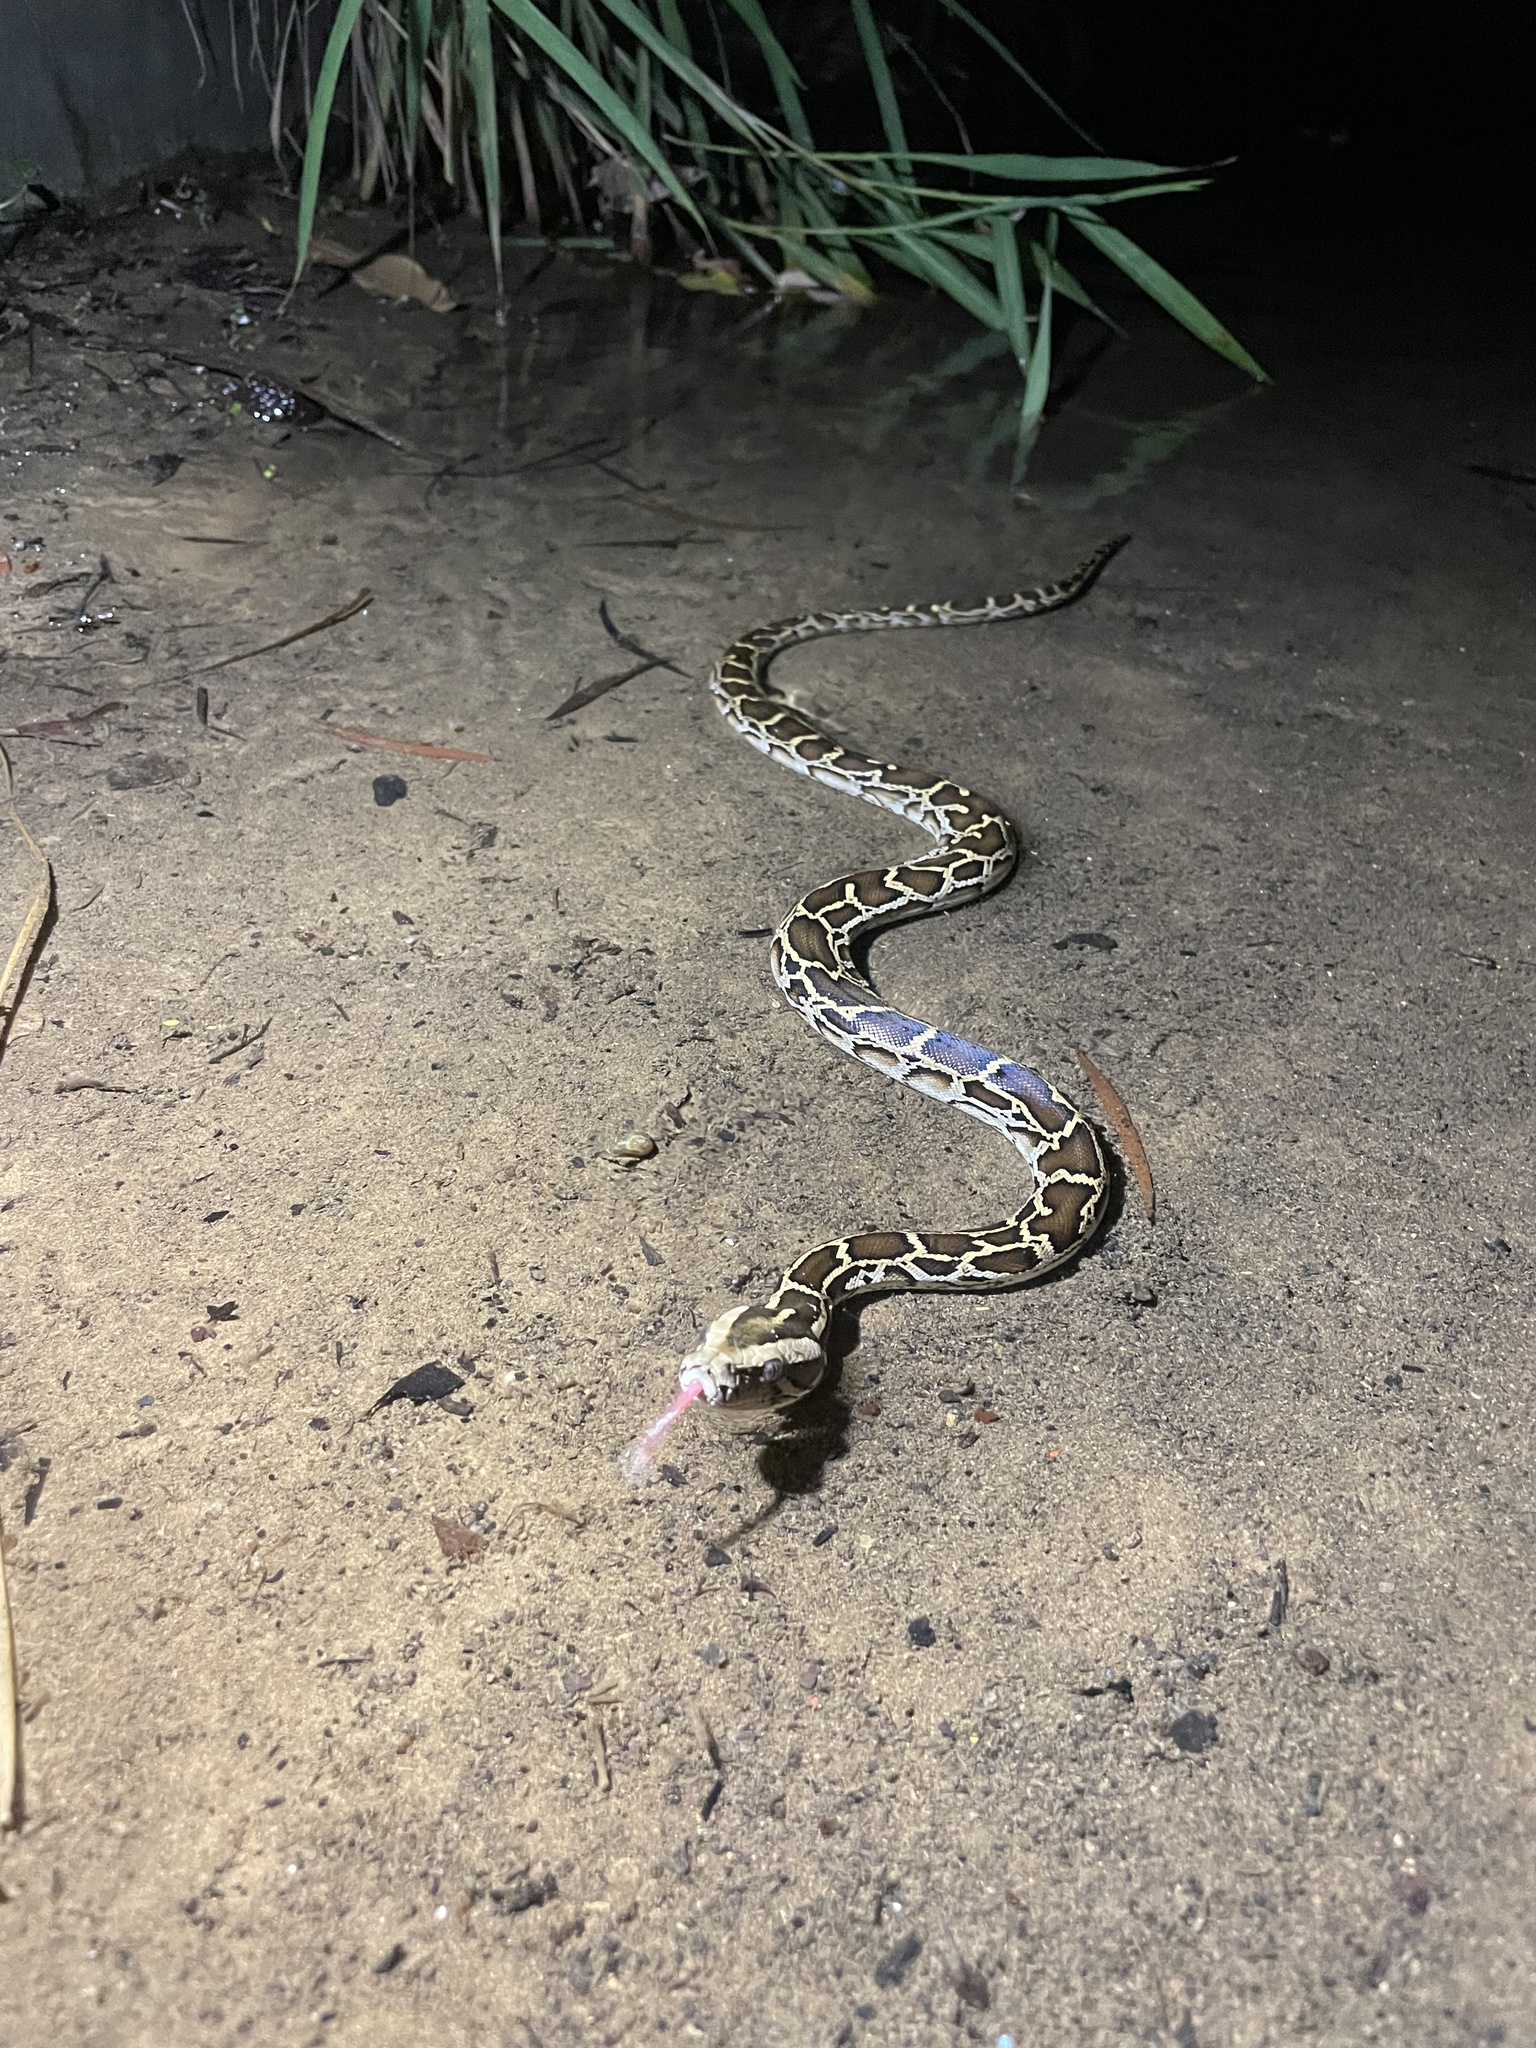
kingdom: Animalia
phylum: Chordata
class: Squamata
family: Pythonidae
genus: Python
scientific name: Python bivittatus
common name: Burmese python
